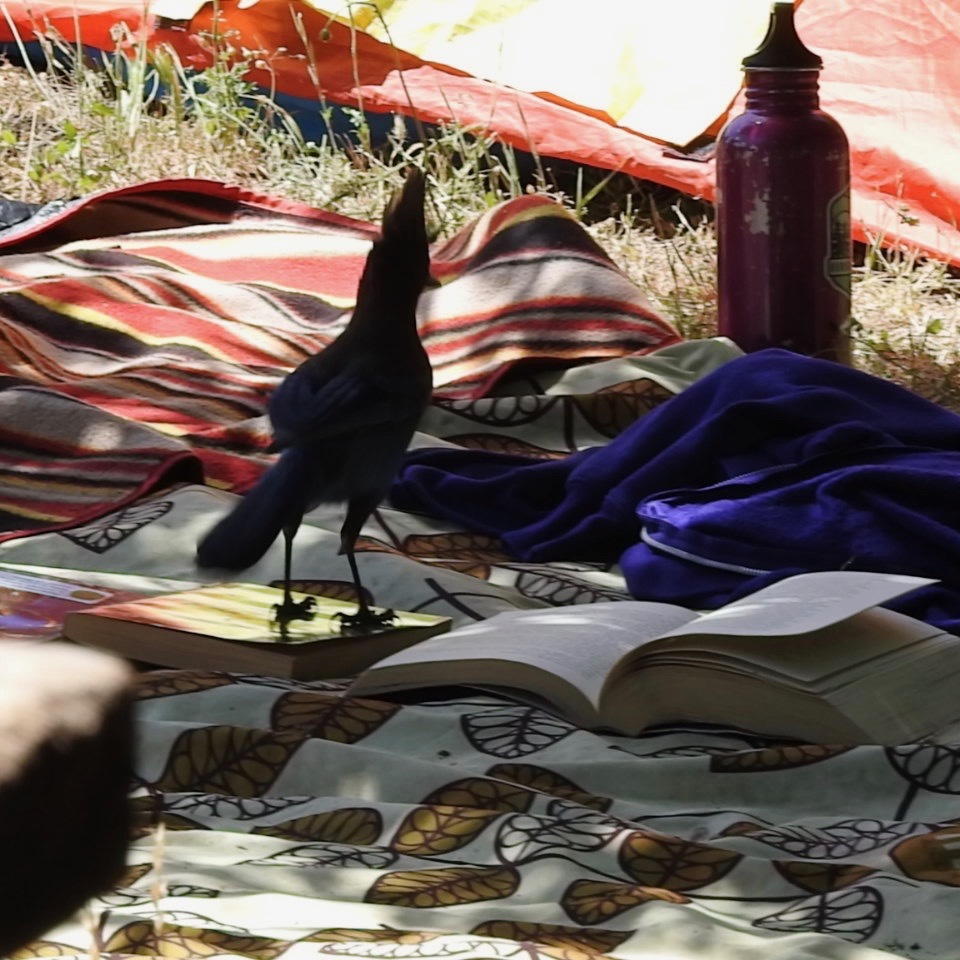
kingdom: Animalia
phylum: Chordata
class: Aves
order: Passeriformes
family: Corvidae
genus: Cyanocitta
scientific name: Cyanocitta stelleri
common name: Steller's jay
